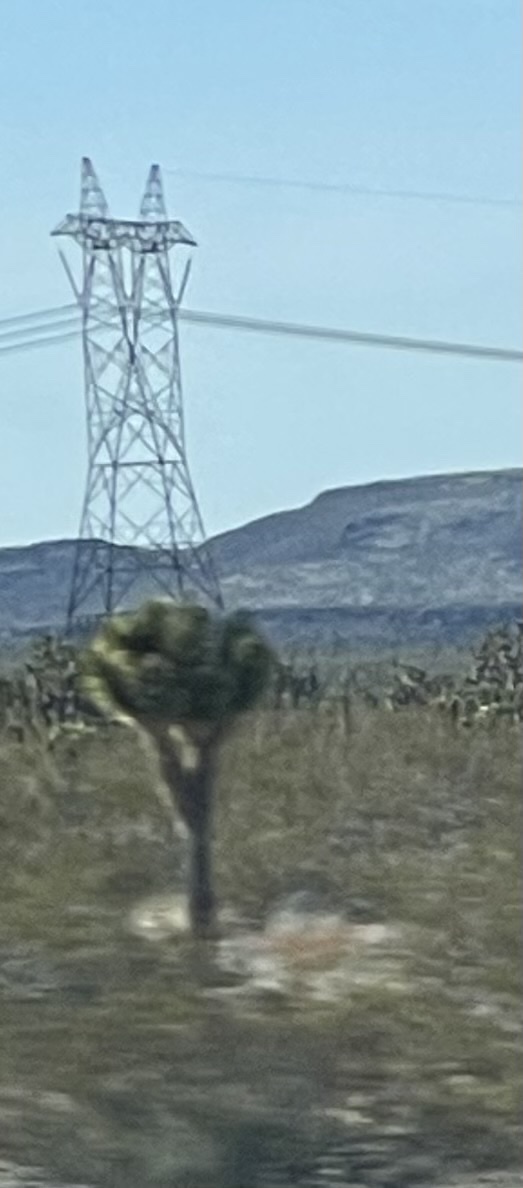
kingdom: Plantae
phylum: Tracheophyta
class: Liliopsida
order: Asparagales
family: Asparagaceae
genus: Yucca
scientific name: Yucca brevifolia
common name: Joshua tree
